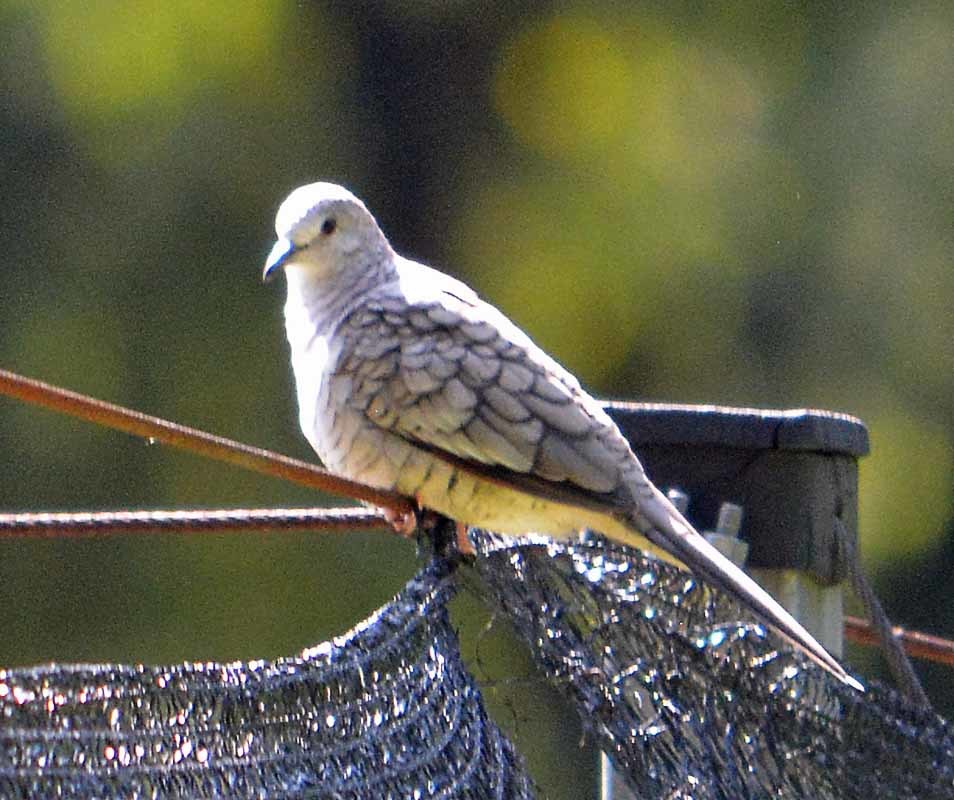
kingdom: Animalia
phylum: Chordata
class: Aves
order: Columbiformes
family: Columbidae
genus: Columbina
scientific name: Columbina inca
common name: Inca dove
